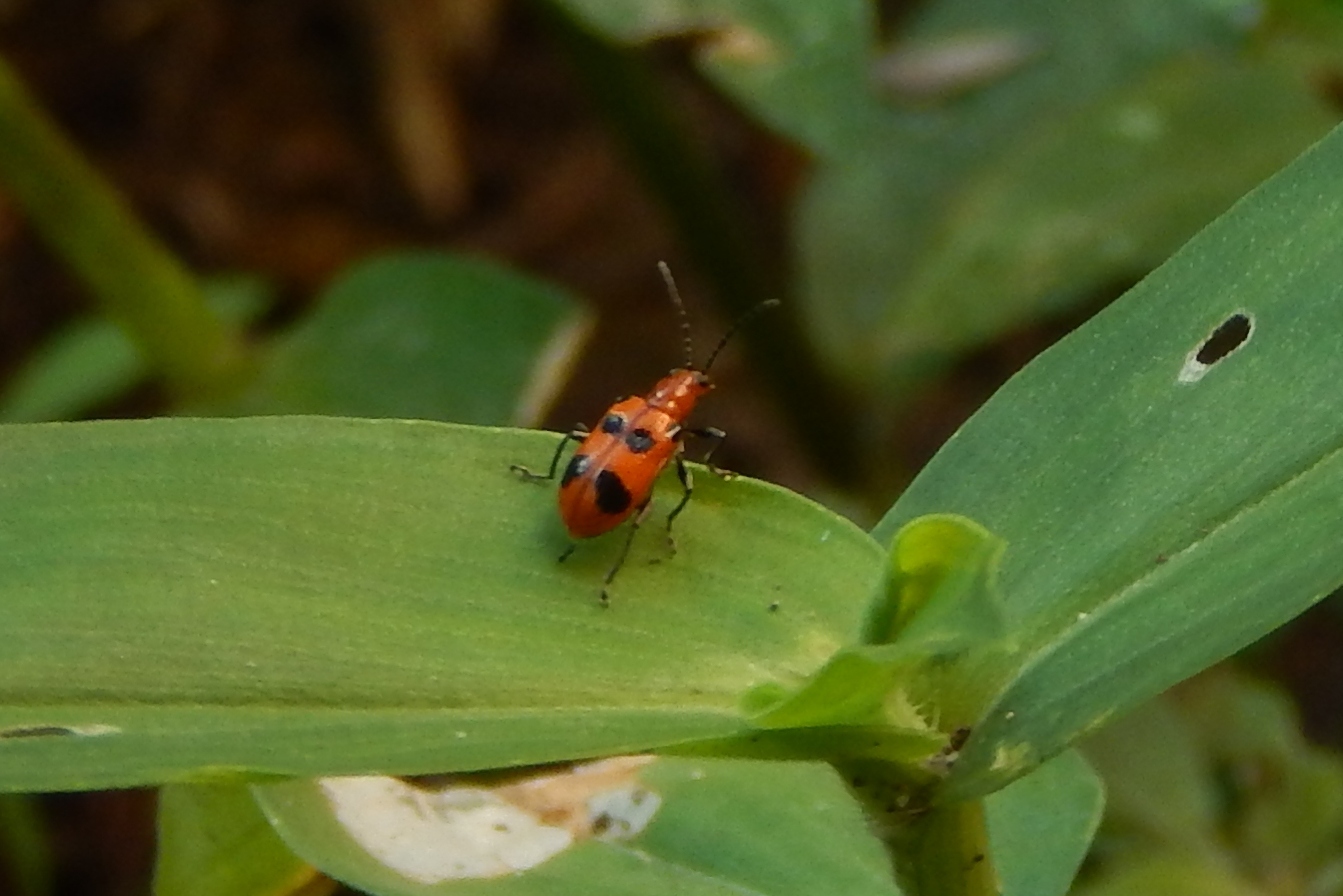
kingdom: Animalia
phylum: Arthropoda
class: Insecta
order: Coleoptera
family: Chrysomelidae
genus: Neolema
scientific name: Neolema sexpunctata
